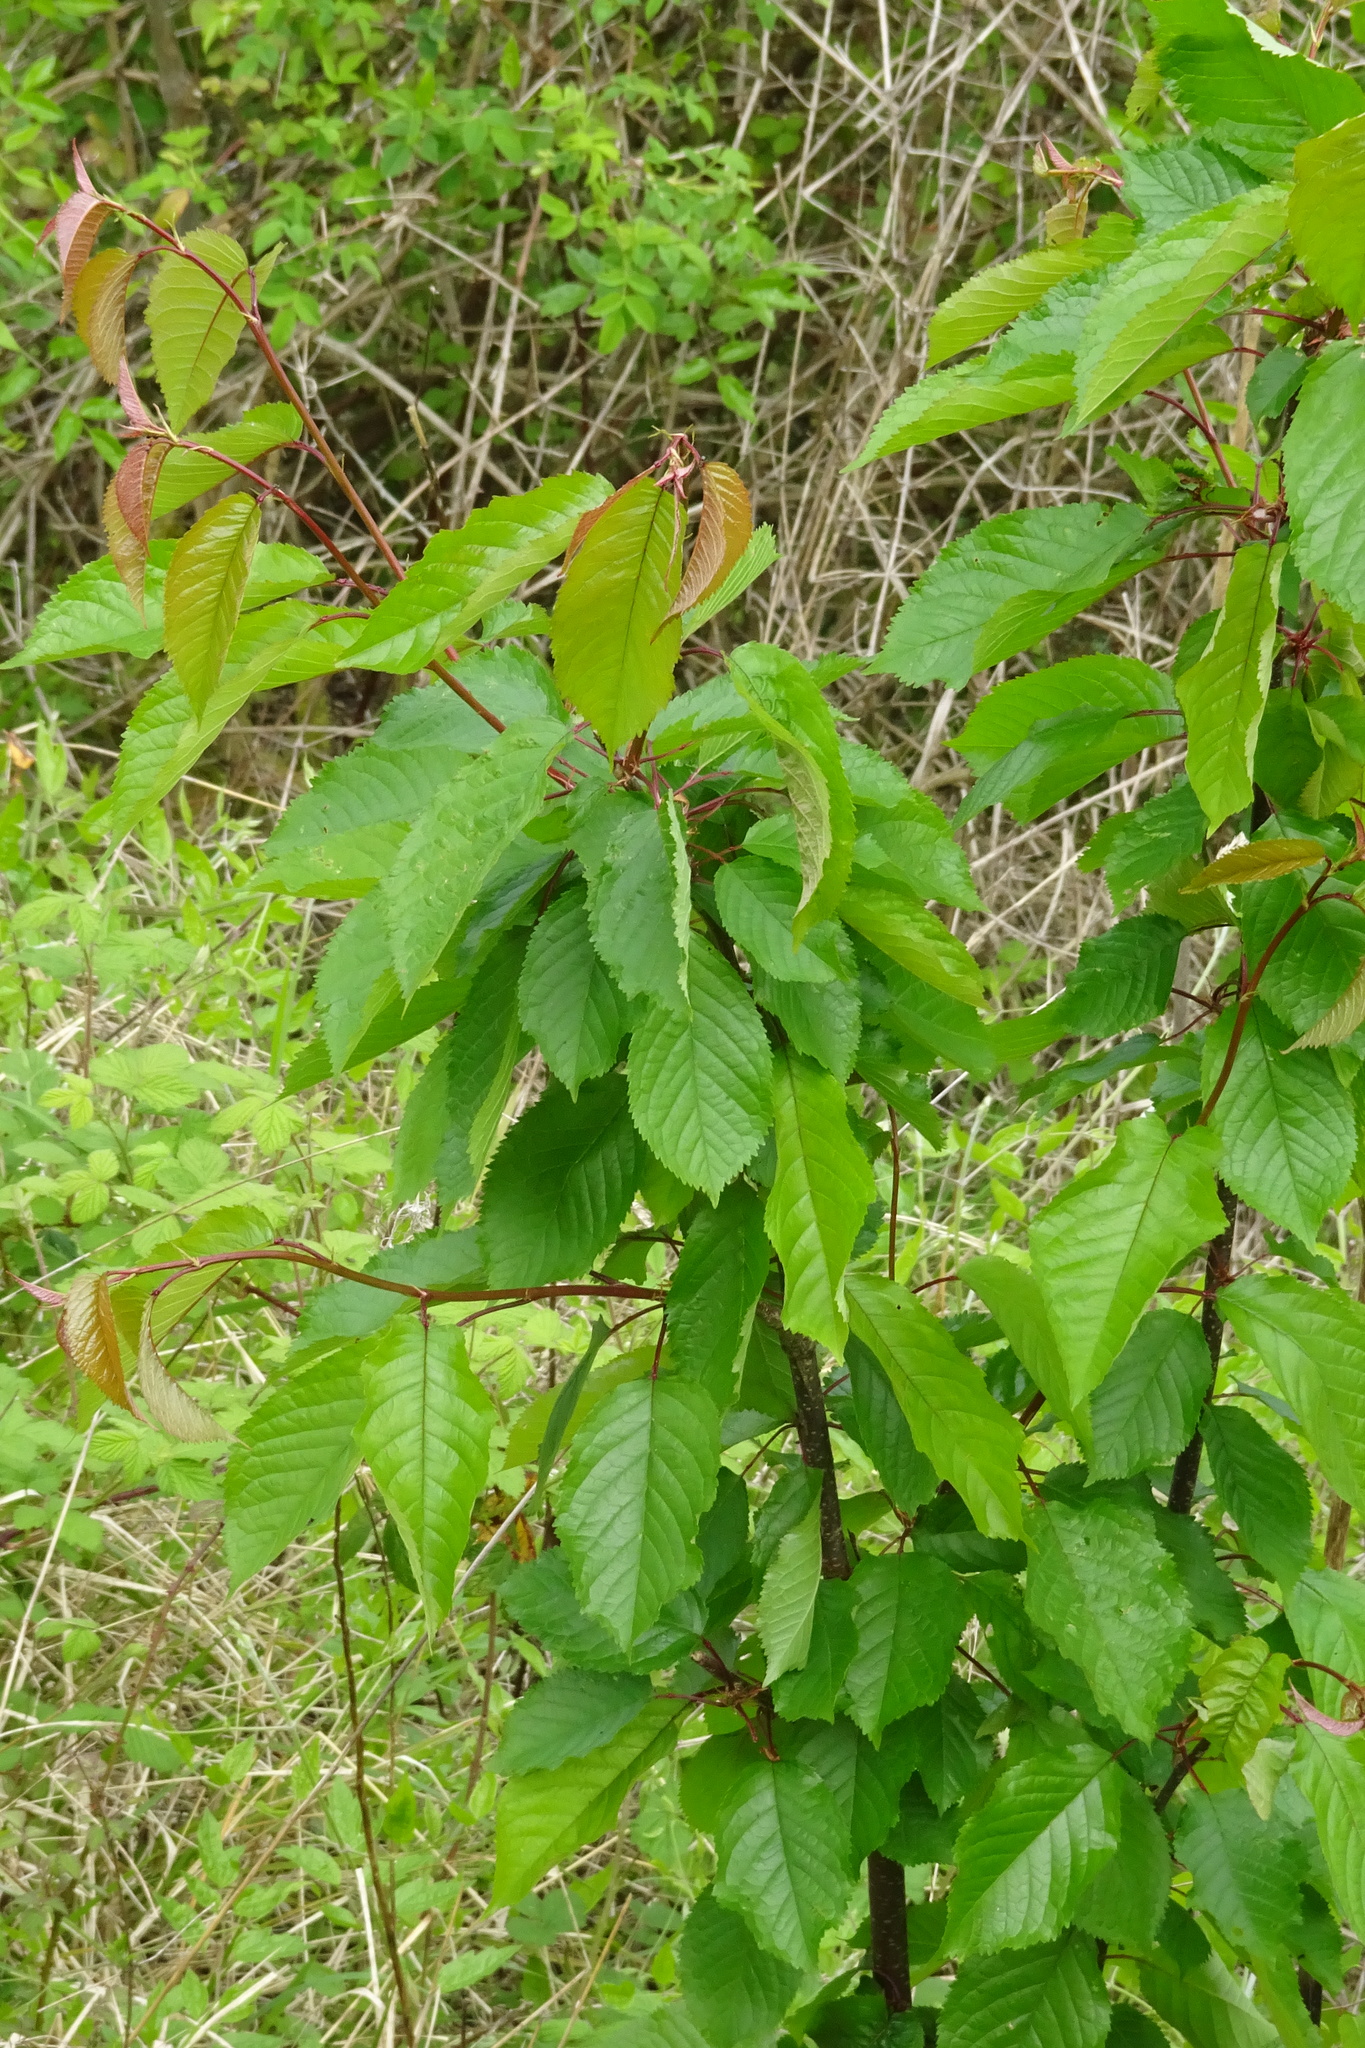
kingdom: Plantae
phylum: Tracheophyta
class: Magnoliopsida
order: Rosales
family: Rosaceae
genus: Prunus
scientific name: Prunus avium
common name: Sweet cherry
